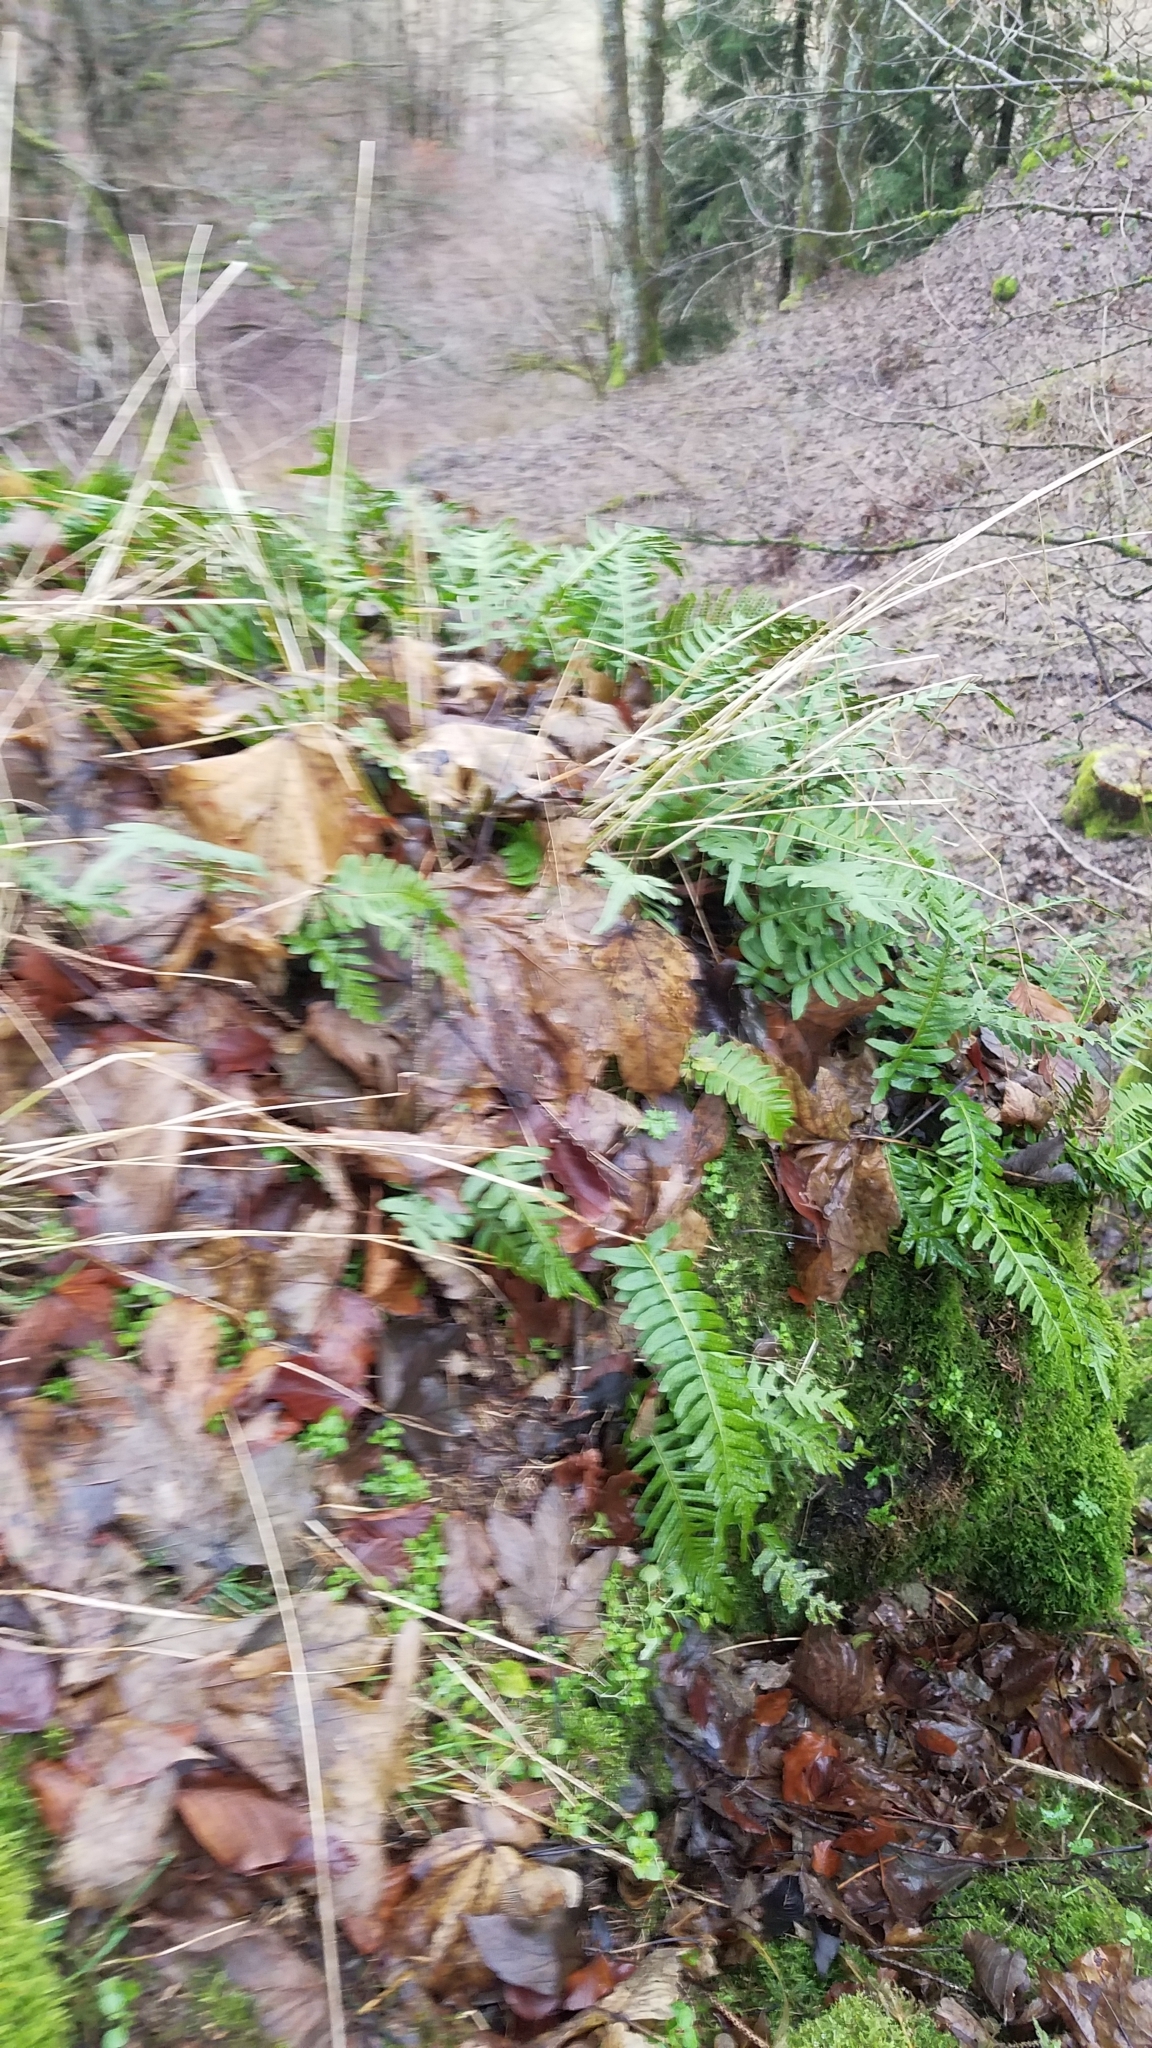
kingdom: Plantae
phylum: Tracheophyta
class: Polypodiopsida
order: Polypodiales
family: Polypodiaceae
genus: Polypodium
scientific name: Polypodium vulgare
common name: Common polypody
